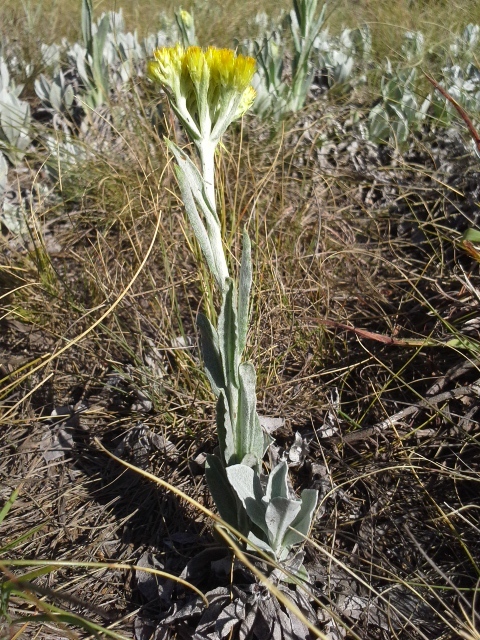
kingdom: Plantae
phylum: Tracheophyta
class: Magnoliopsida
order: Asterales
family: Asteraceae
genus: Helichrysum
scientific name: Helichrysum oreophilum
